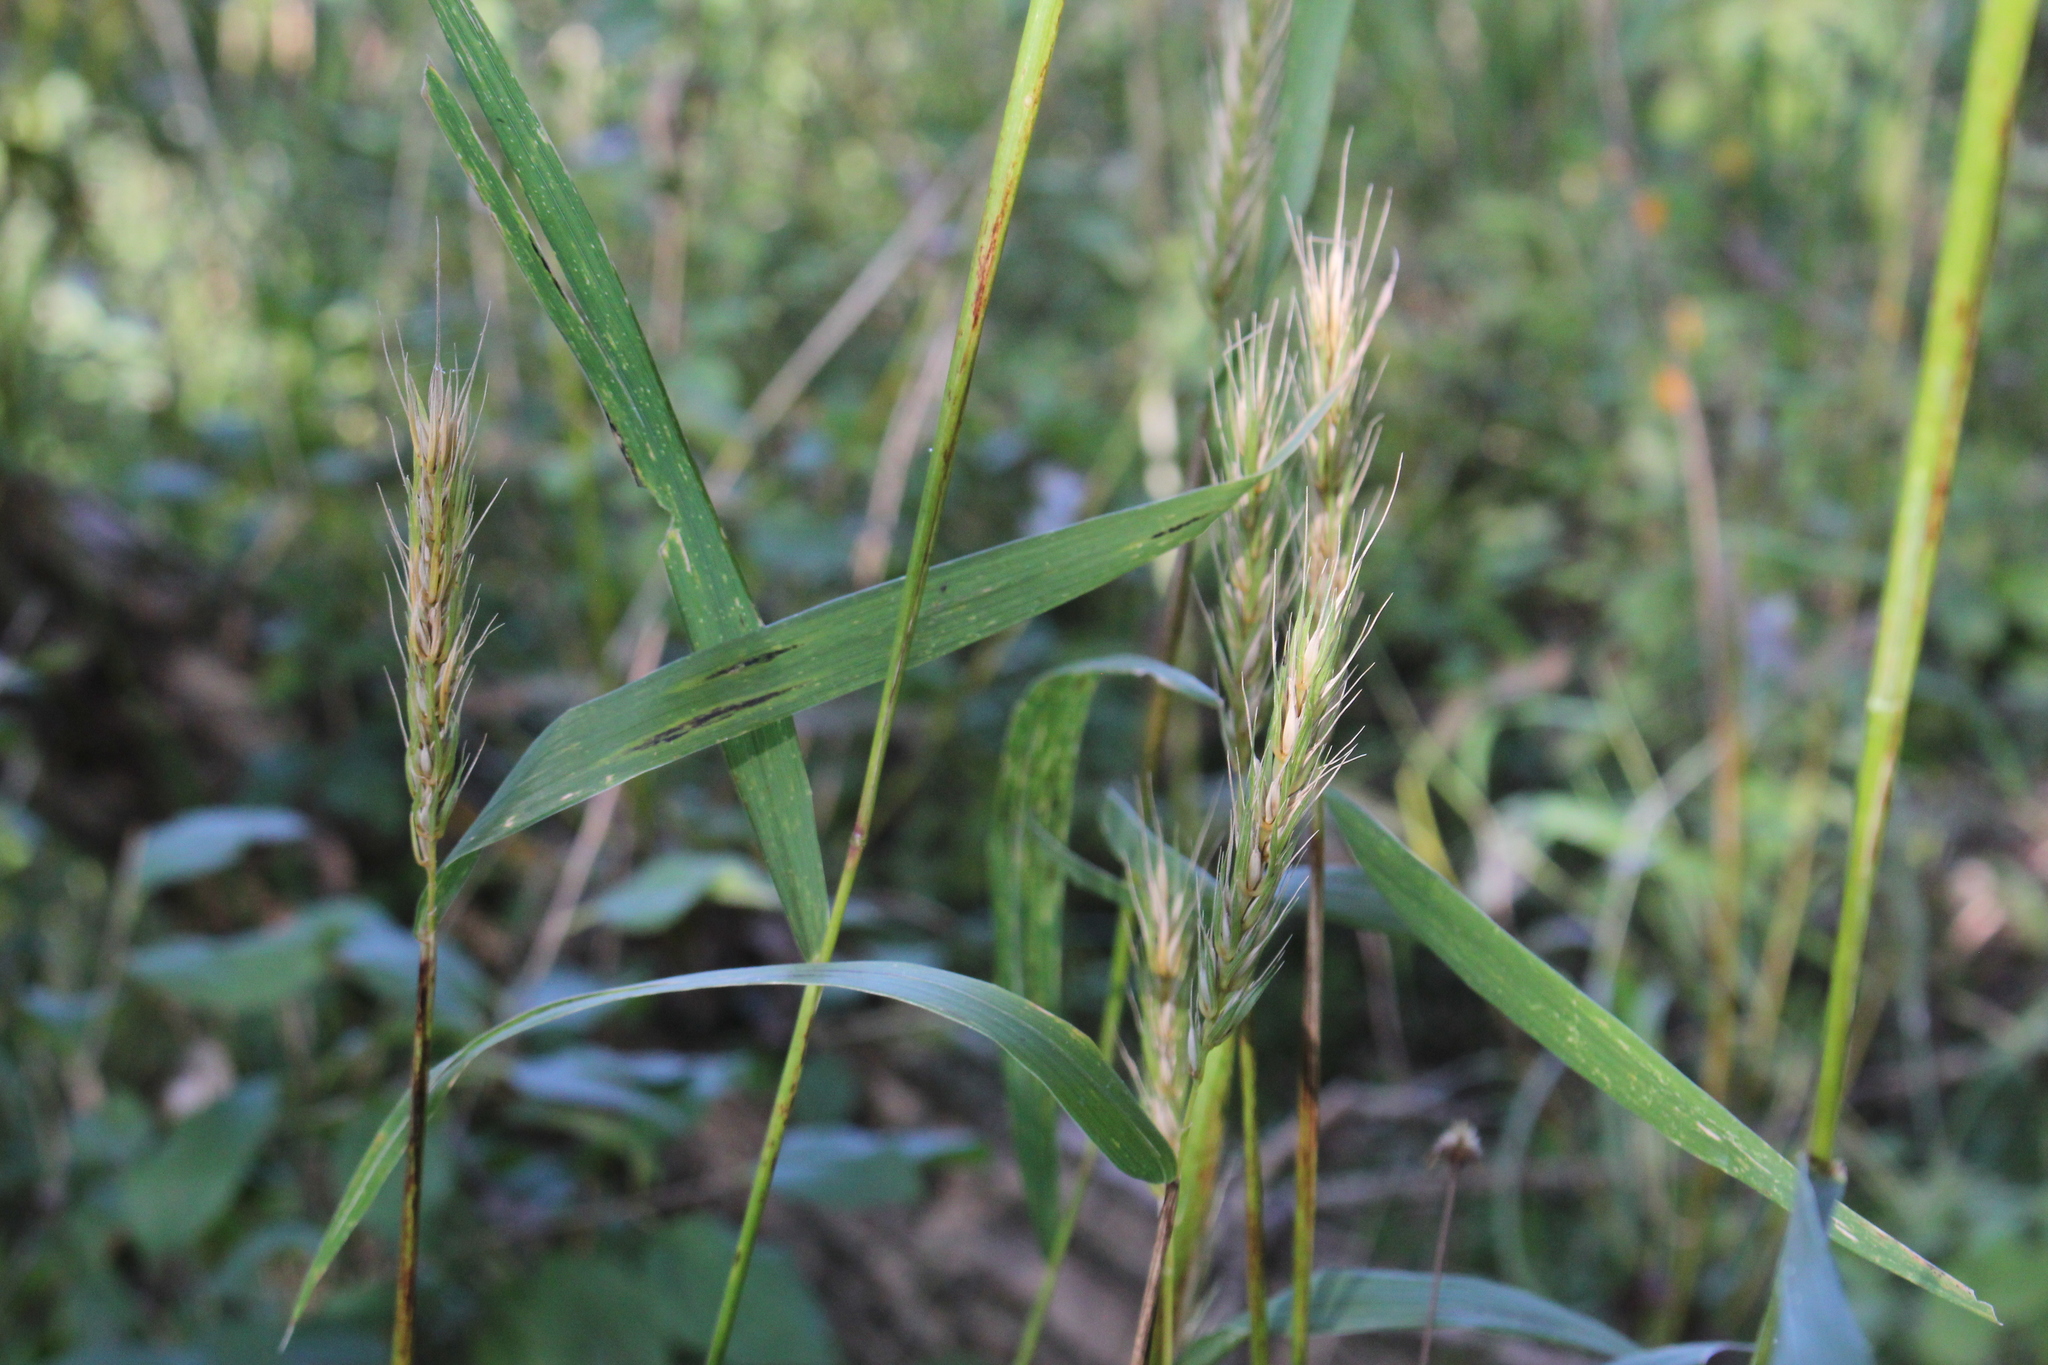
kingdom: Plantae
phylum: Tracheophyta
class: Liliopsida
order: Poales
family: Poaceae
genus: Elymus
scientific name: Elymus virginicus
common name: Common eastern wildrye
